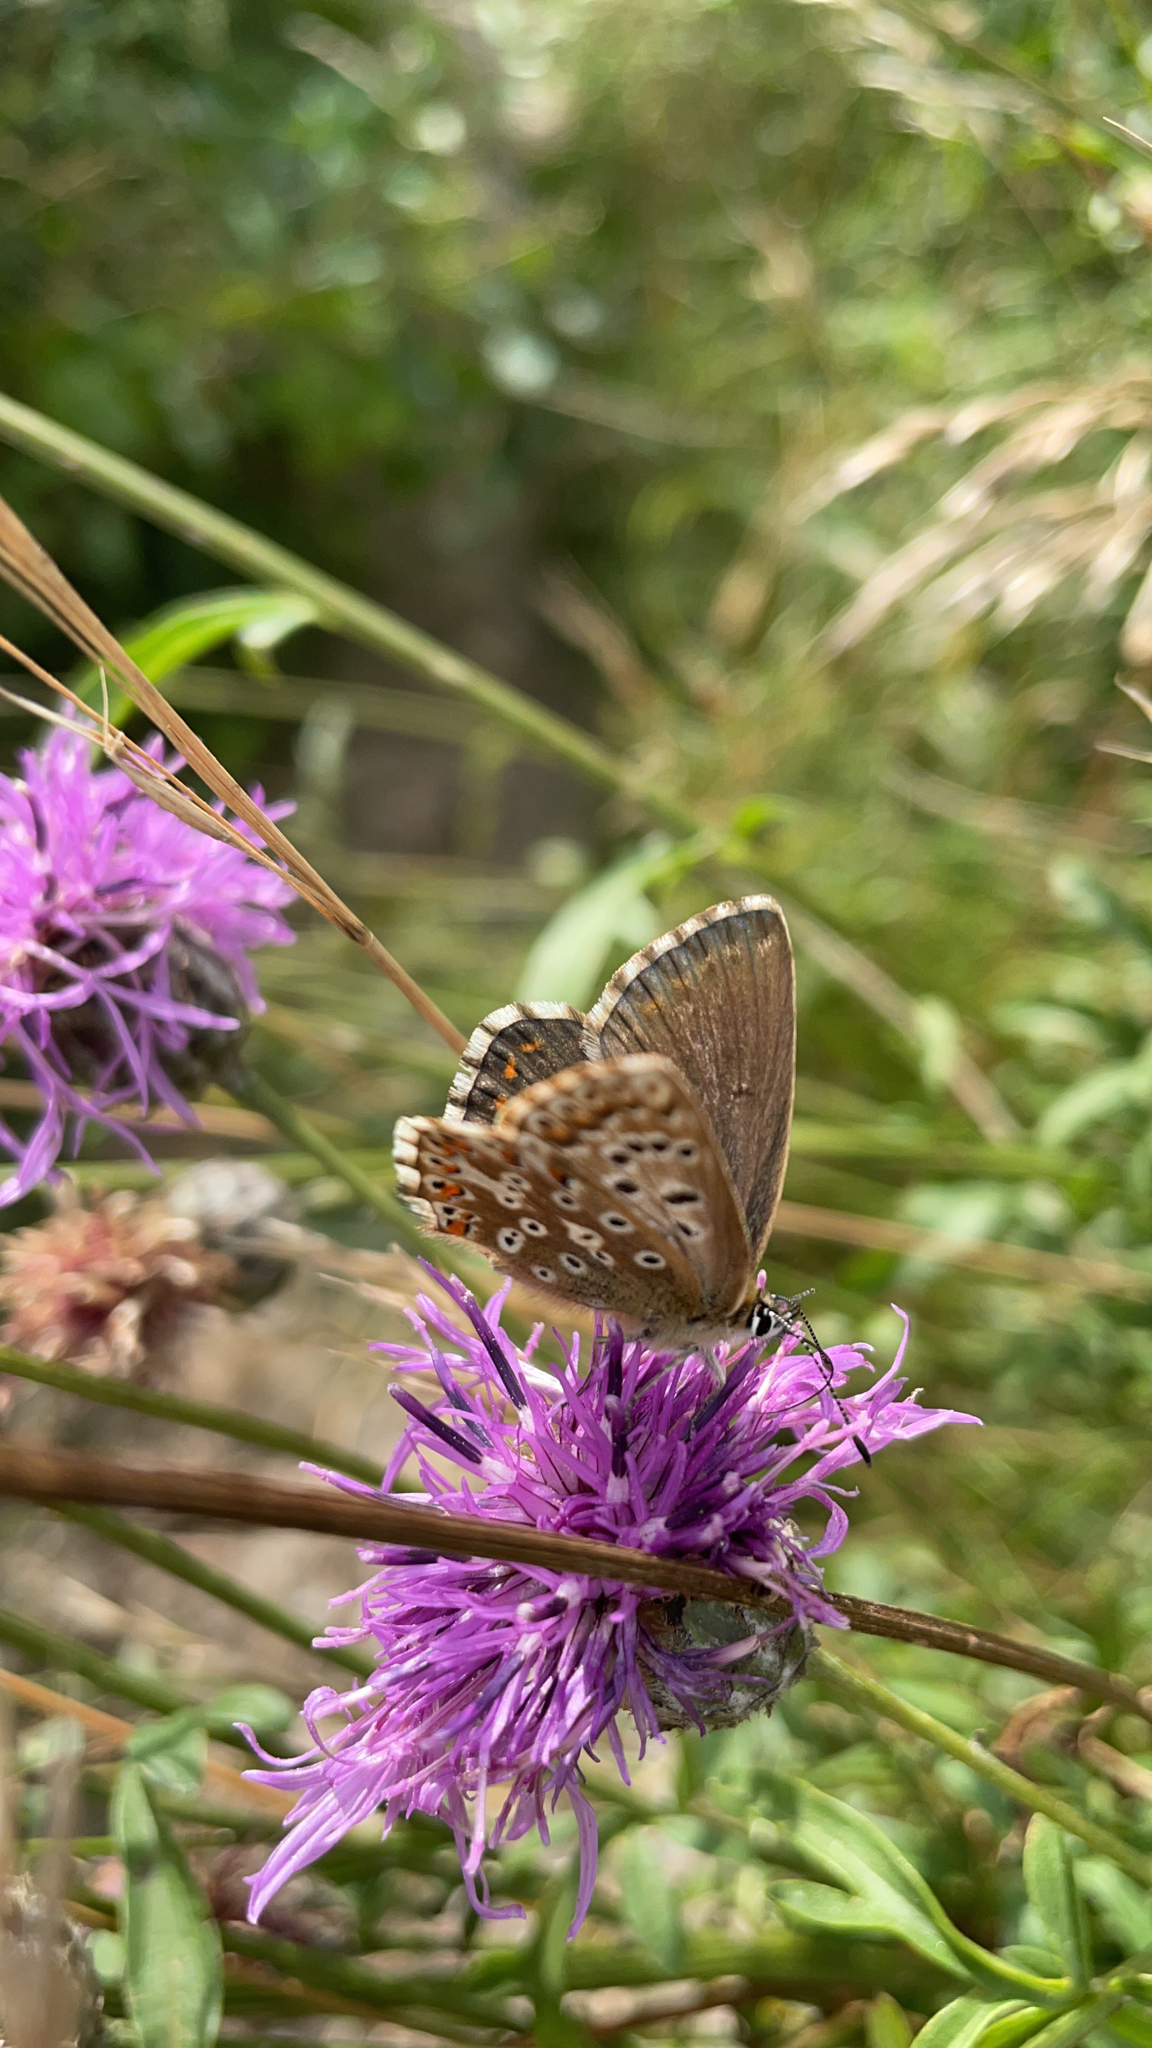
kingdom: Animalia
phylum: Arthropoda
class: Insecta
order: Lepidoptera
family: Lycaenidae
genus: Lysandra
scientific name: Lysandra coridon
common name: Chalkhill blue
